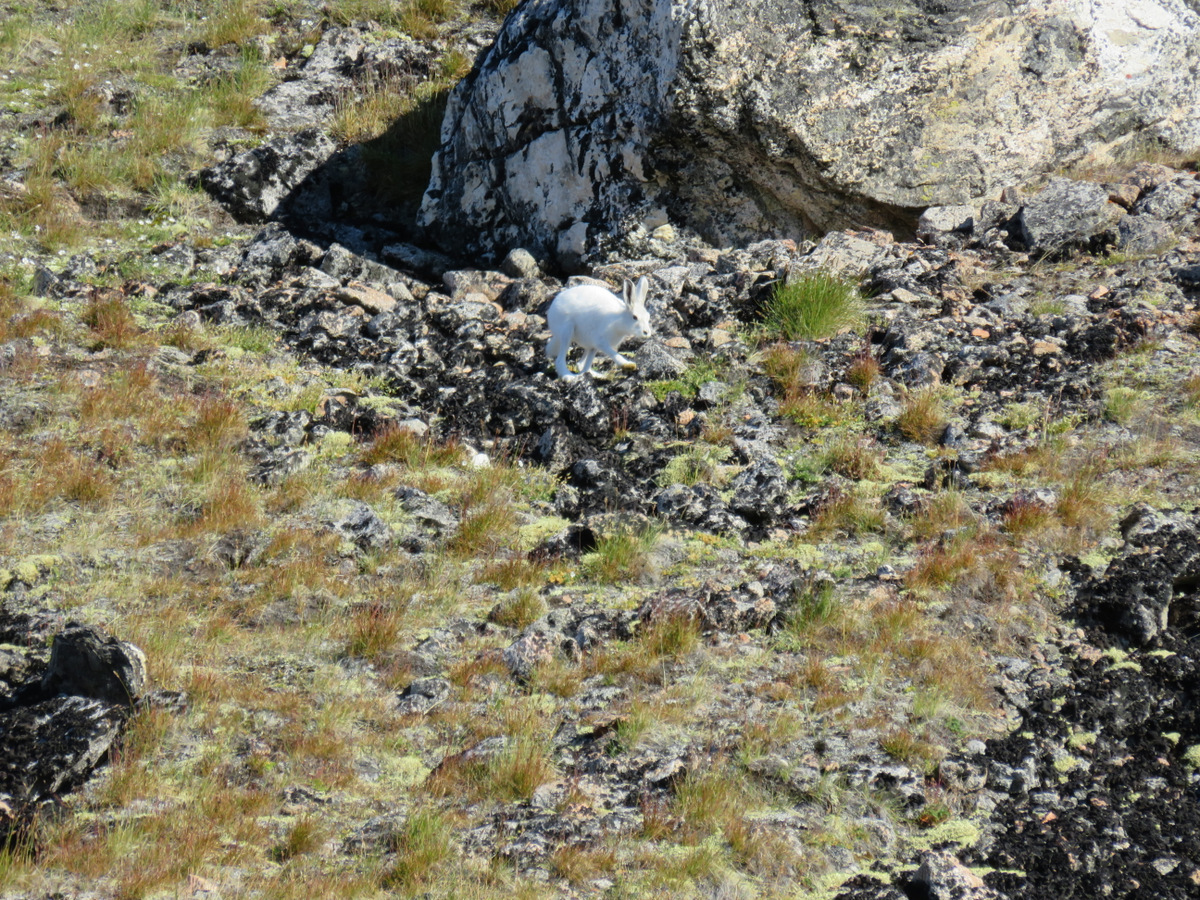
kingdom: Animalia
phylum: Chordata
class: Mammalia
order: Lagomorpha
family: Leporidae
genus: Lepus
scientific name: Lepus arcticus
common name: Arctic hare
